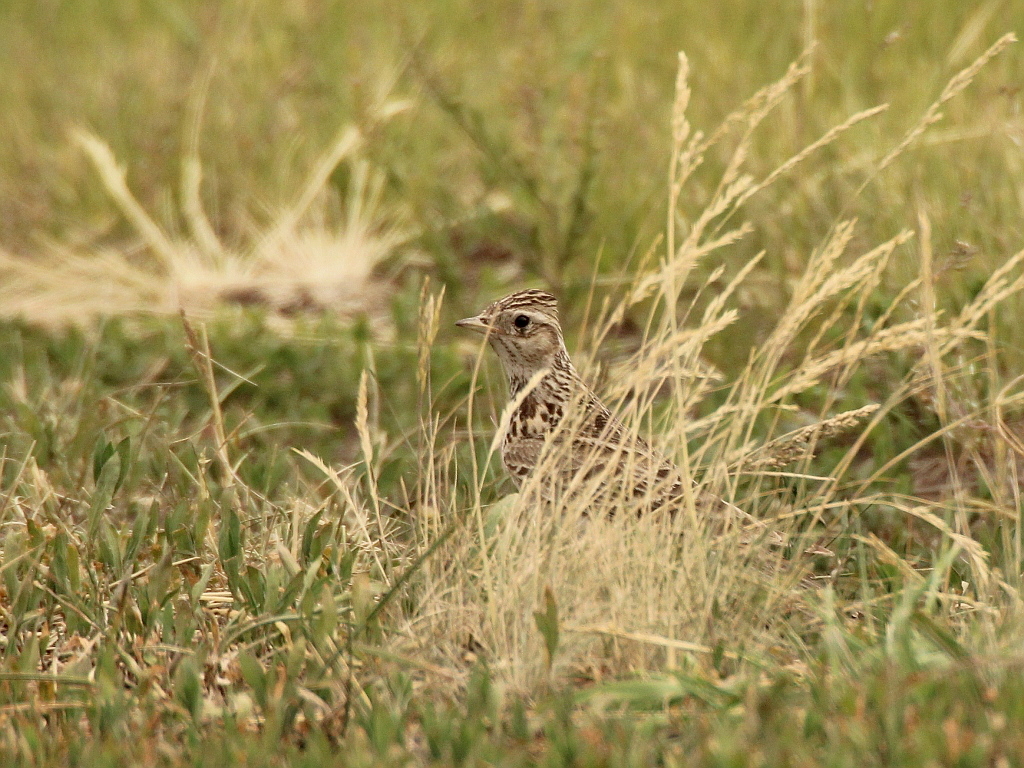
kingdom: Animalia
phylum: Chordata
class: Aves
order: Passeriformes
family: Alaudidae
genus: Alauda
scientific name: Alauda arvensis
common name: Eurasian skylark
